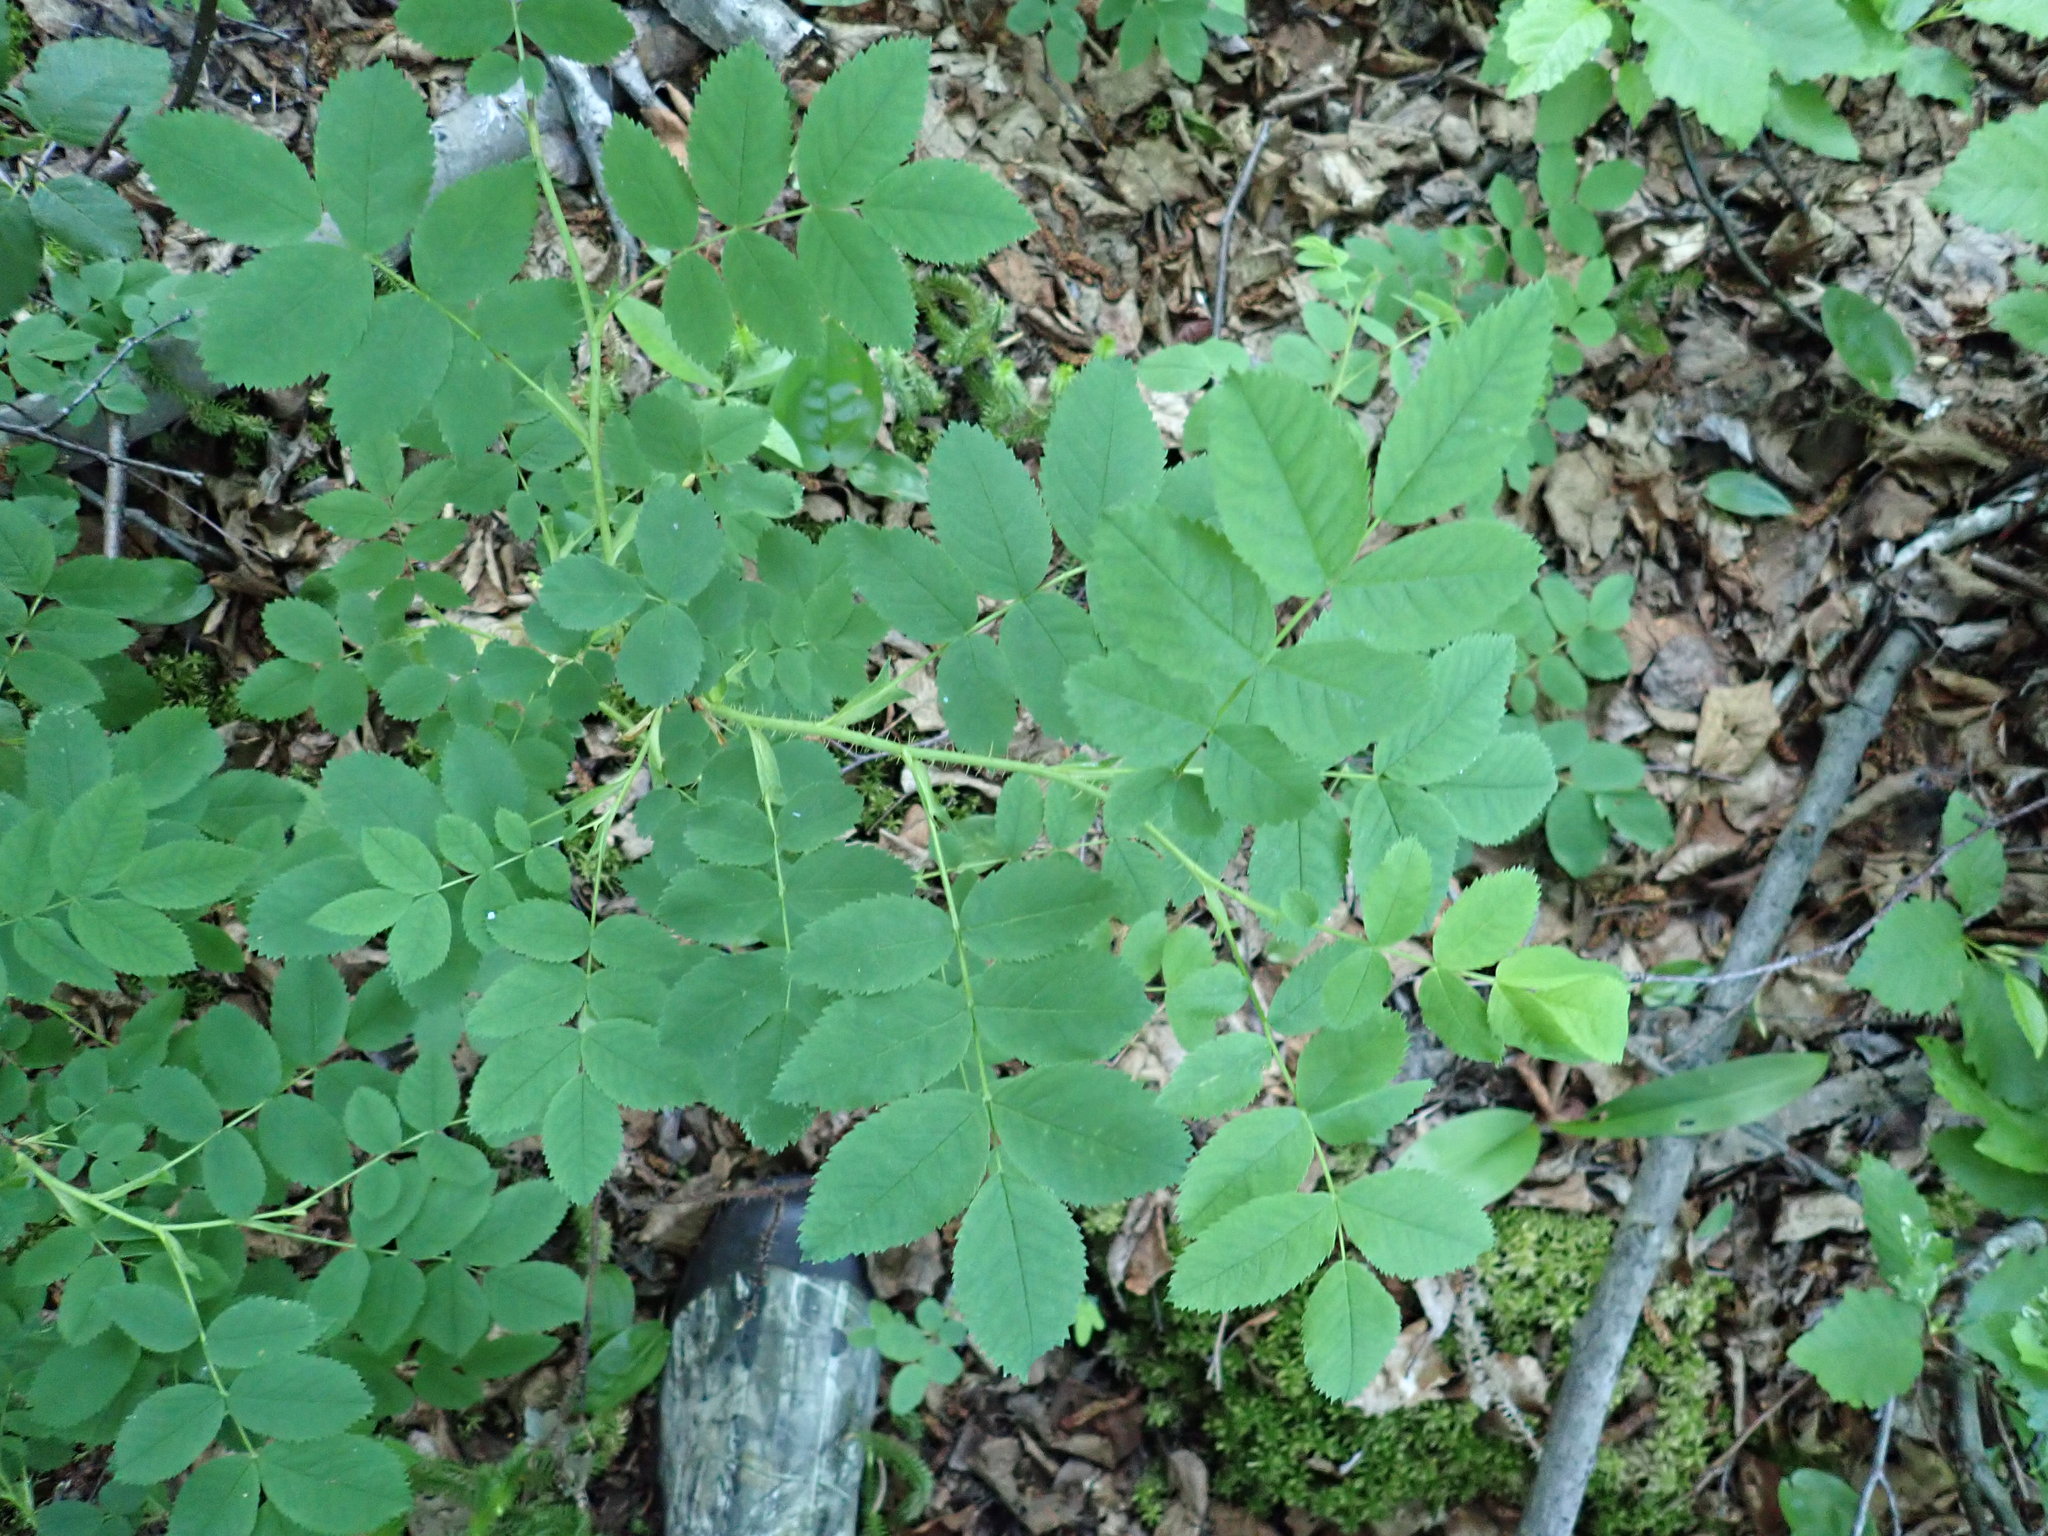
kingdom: Plantae
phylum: Tracheophyta
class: Magnoliopsida
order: Rosales
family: Rosaceae
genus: Rosa
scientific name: Rosa acicularis
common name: Prickly rose
